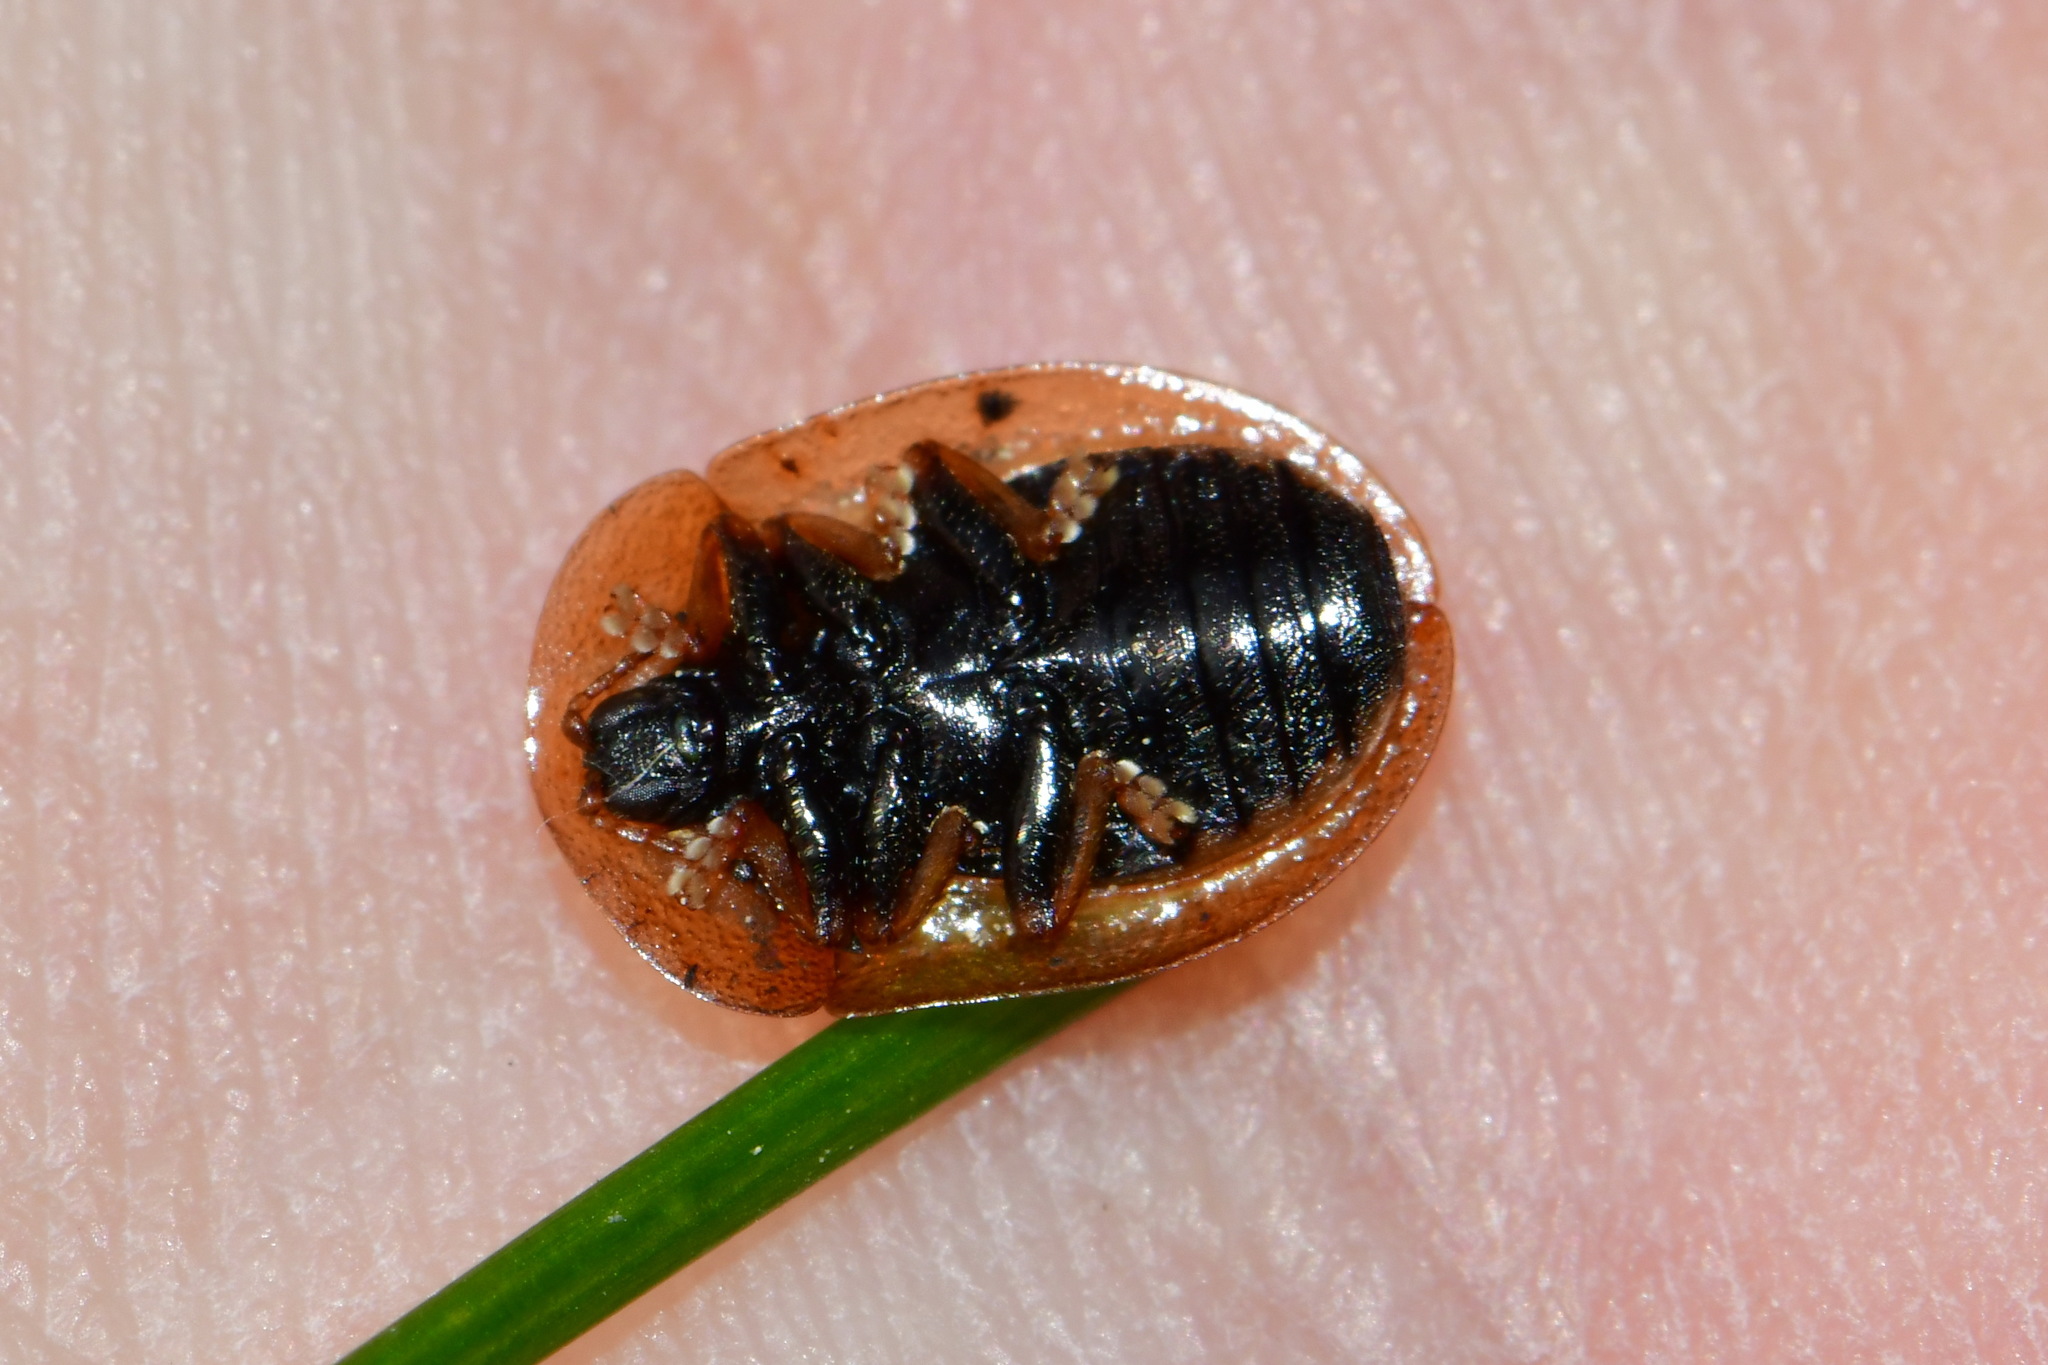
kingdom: Animalia
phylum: Arthropoda
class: Insecta
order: Coleoptera
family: Chrysomelidae
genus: Cassida
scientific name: Cassida vibex
